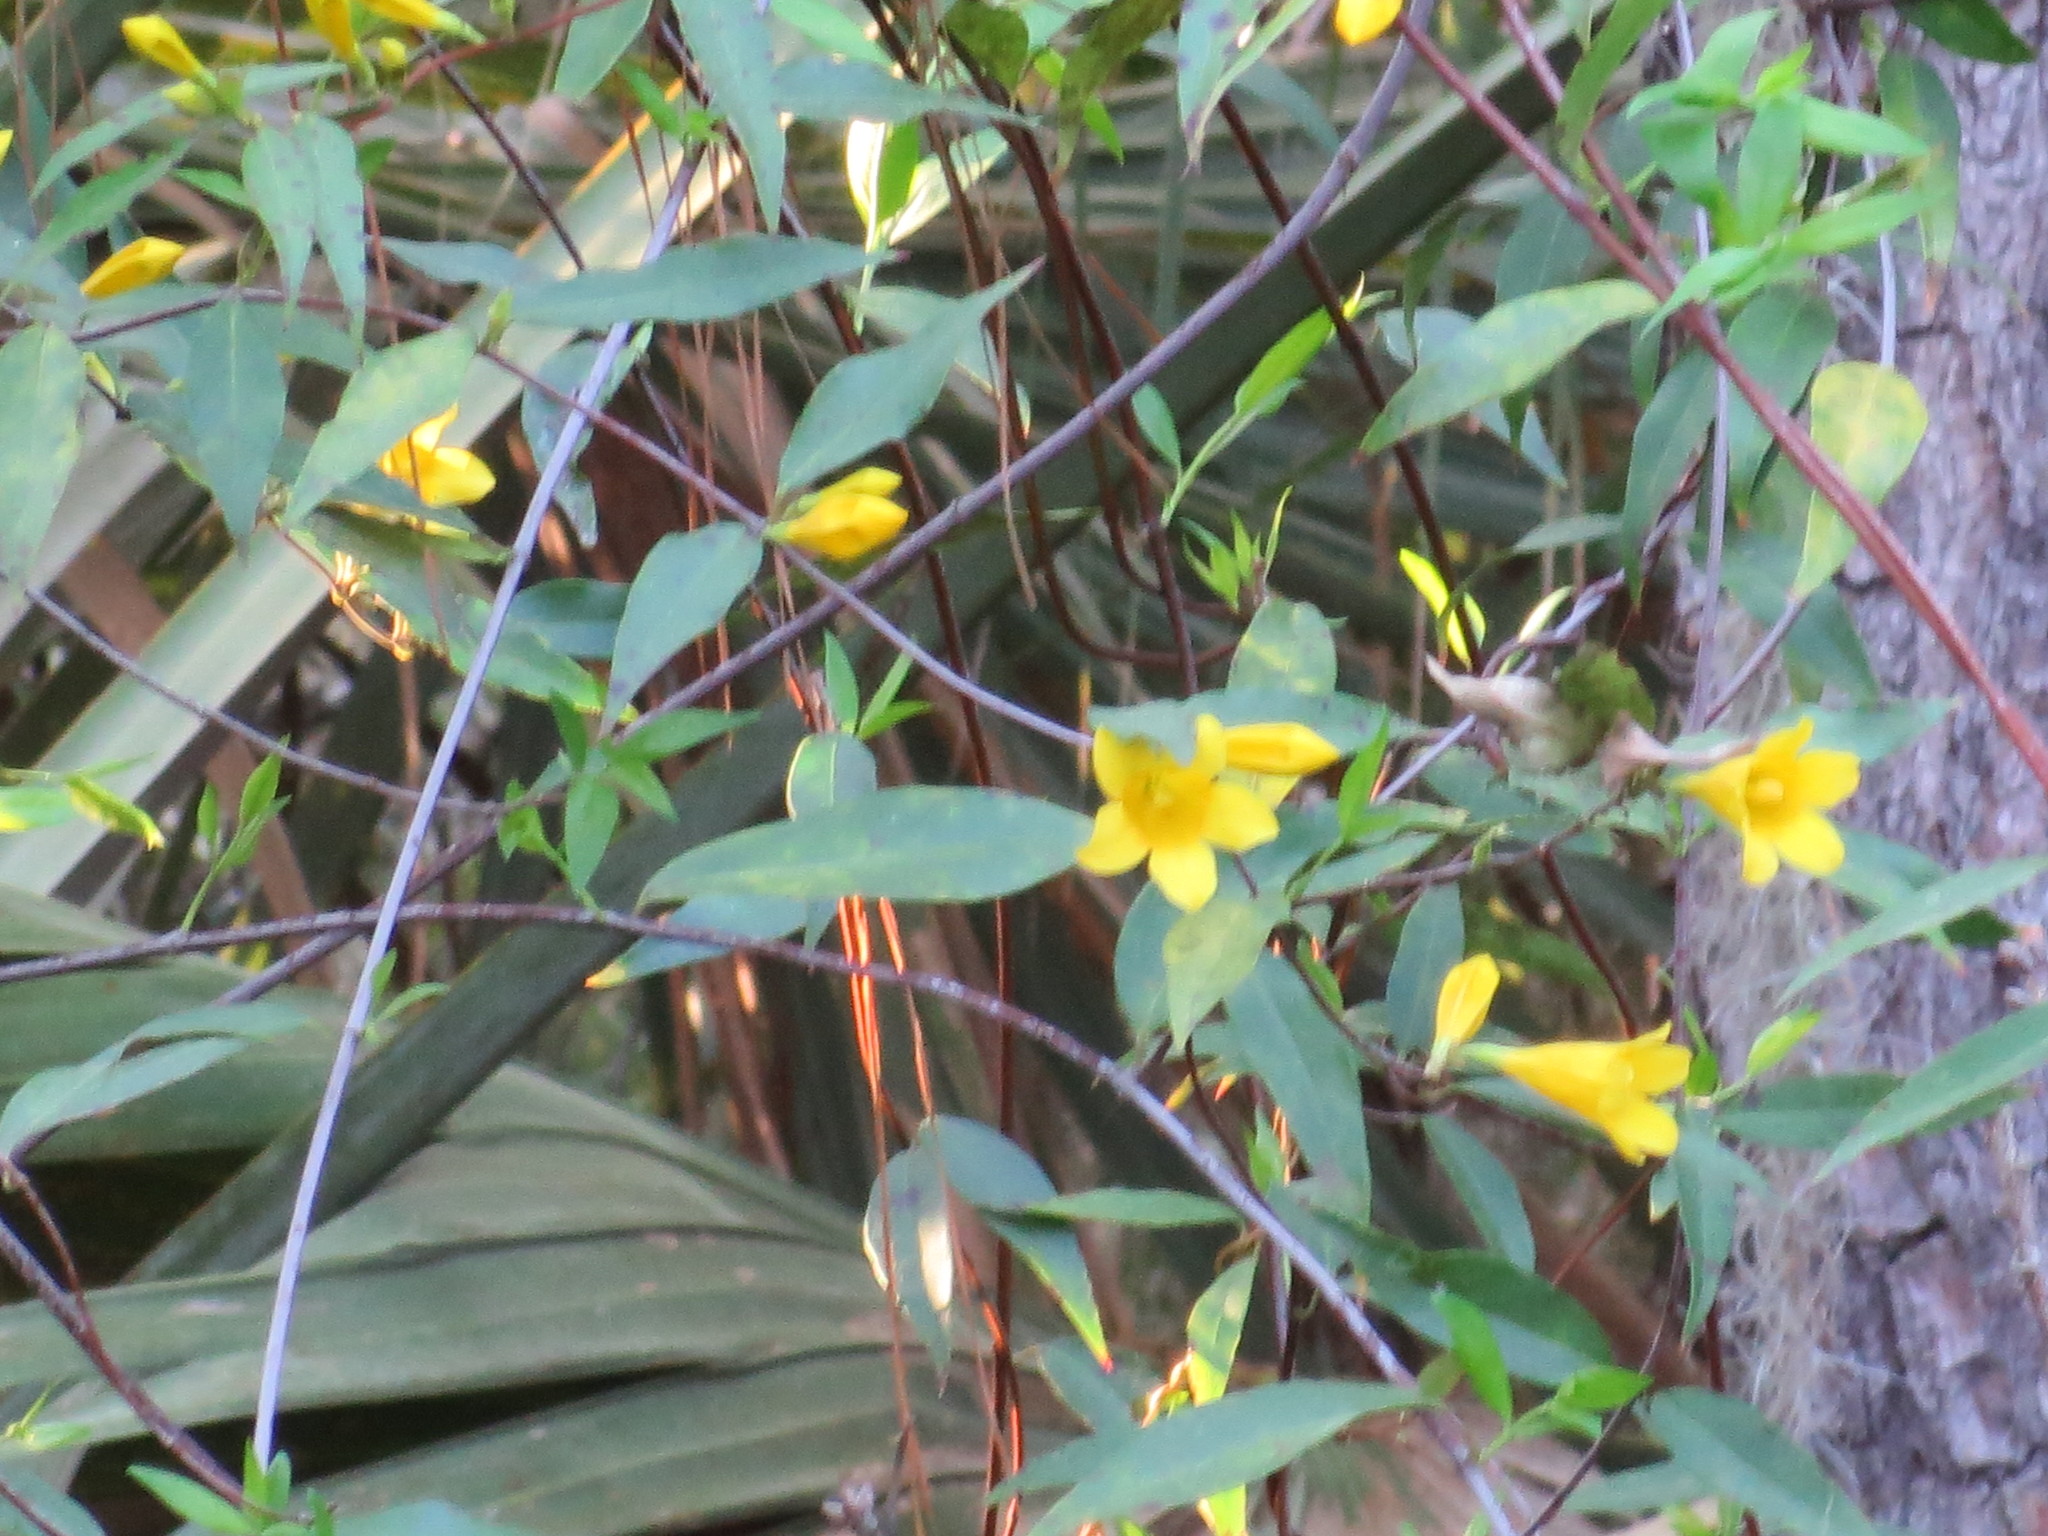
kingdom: Plantae
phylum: Tracheophyta
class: Magnoliopsida
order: Gentianales
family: Gelsemiaceae
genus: Gelsemium
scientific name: Gelsemium sempervirens
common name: Carolina-jasmine
